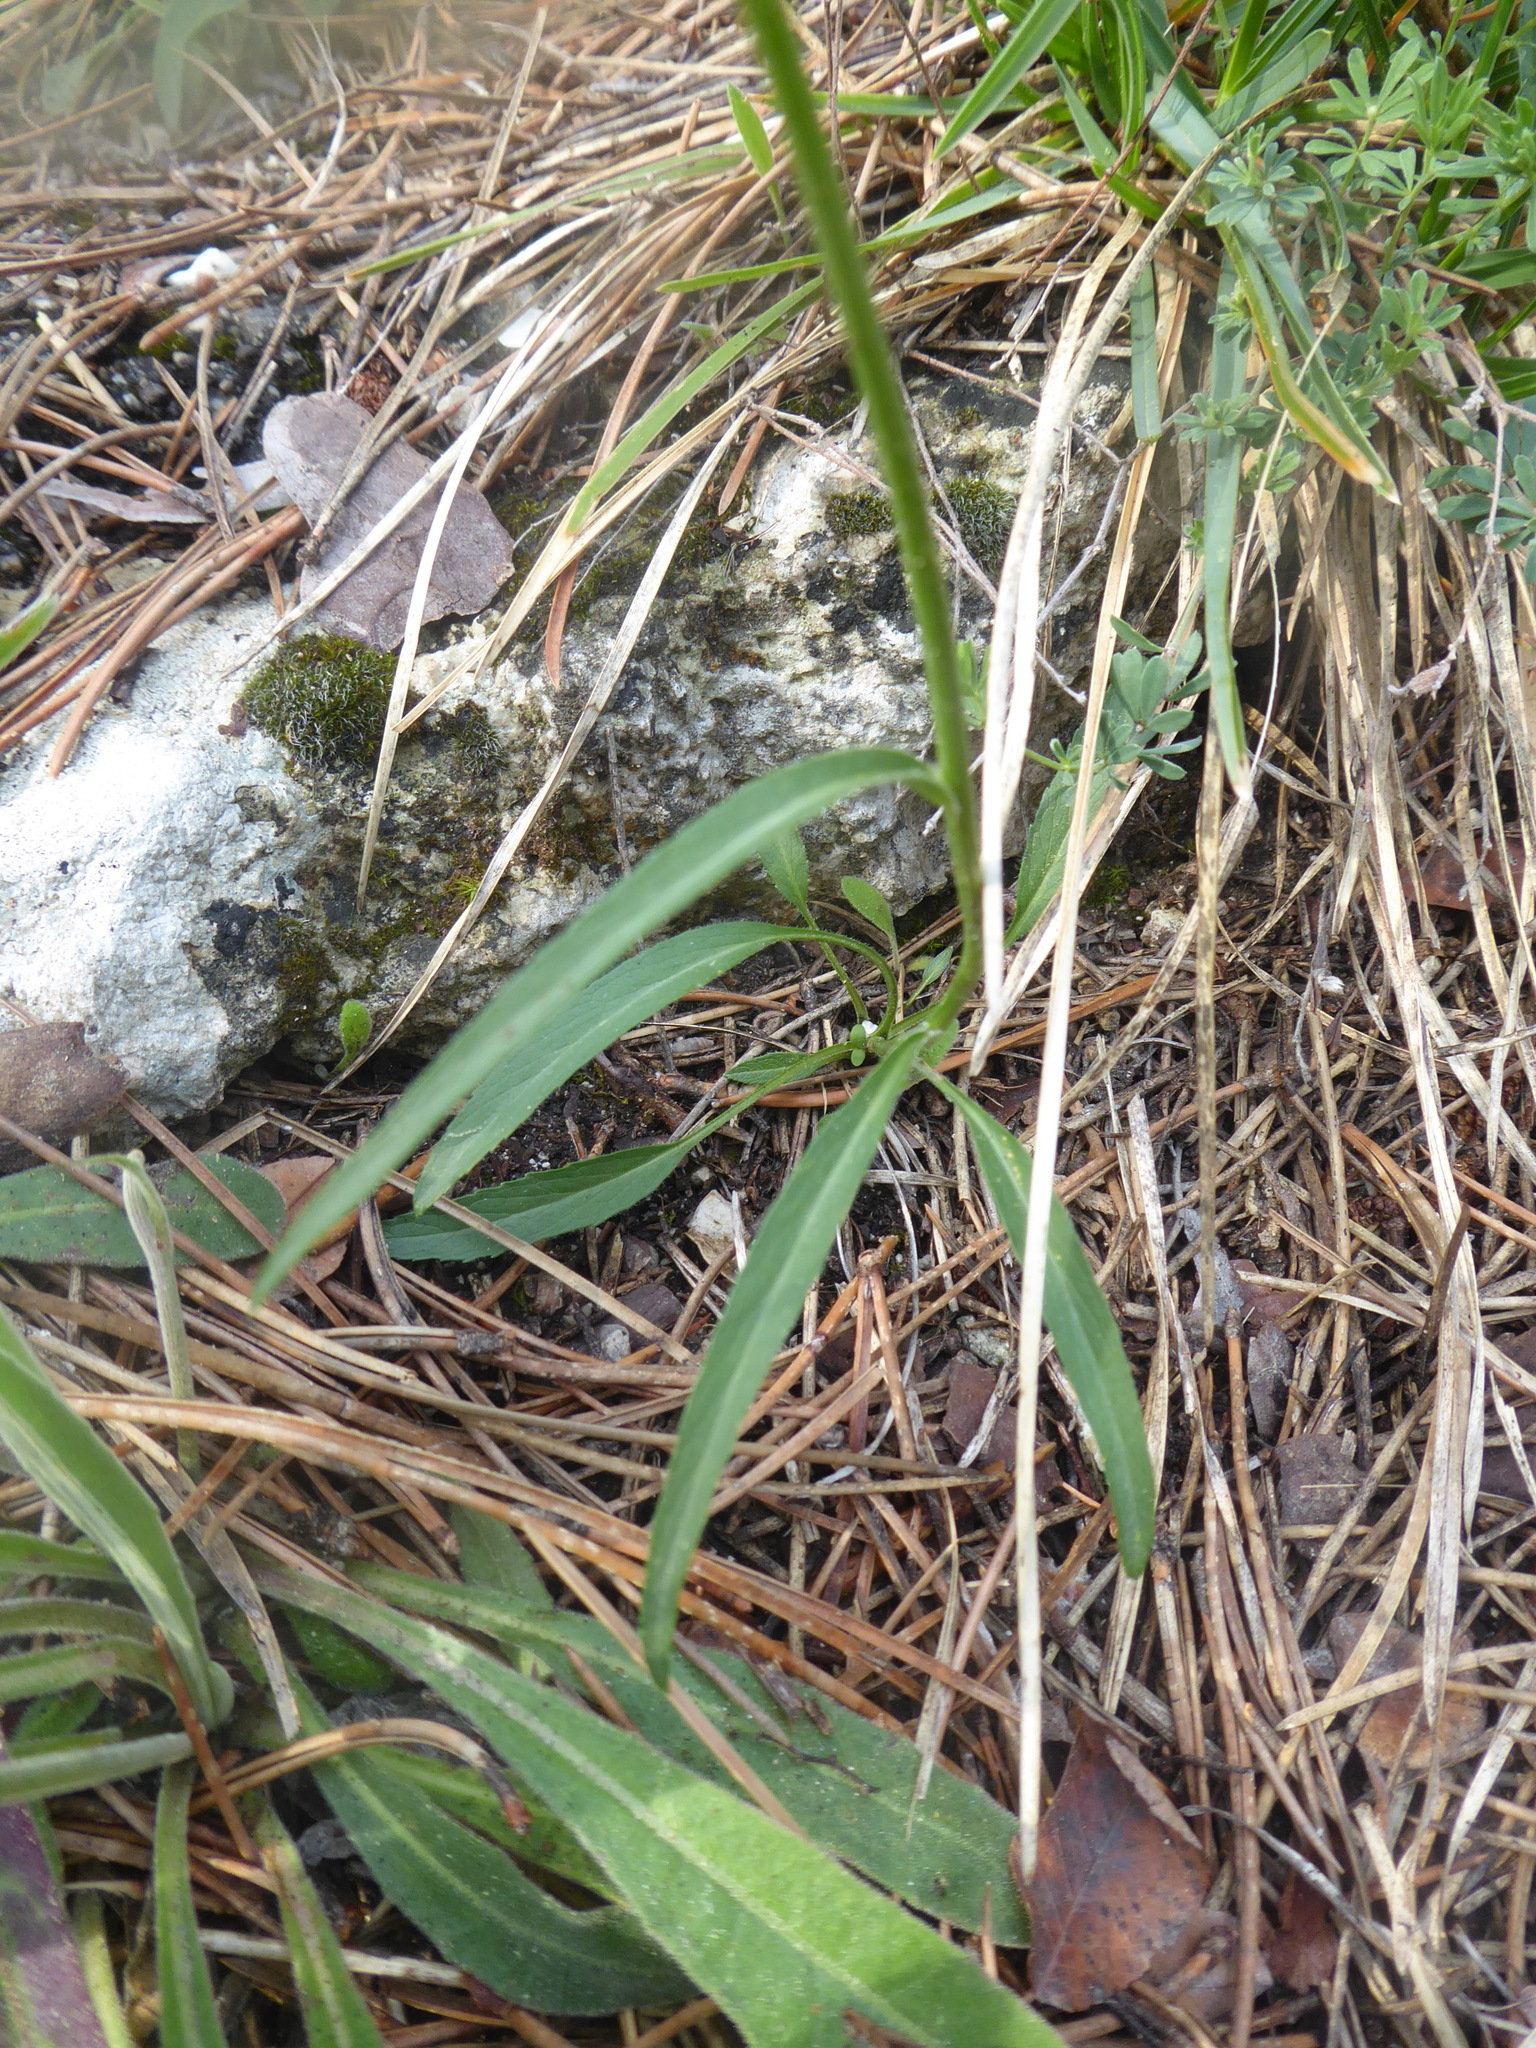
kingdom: Plantae
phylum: Tracheophyta
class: Magnoliopsida
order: Asterales
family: Campanulaceae
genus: Phyteuma
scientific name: Phyteuma orbiculare
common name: Round-headed rampion
